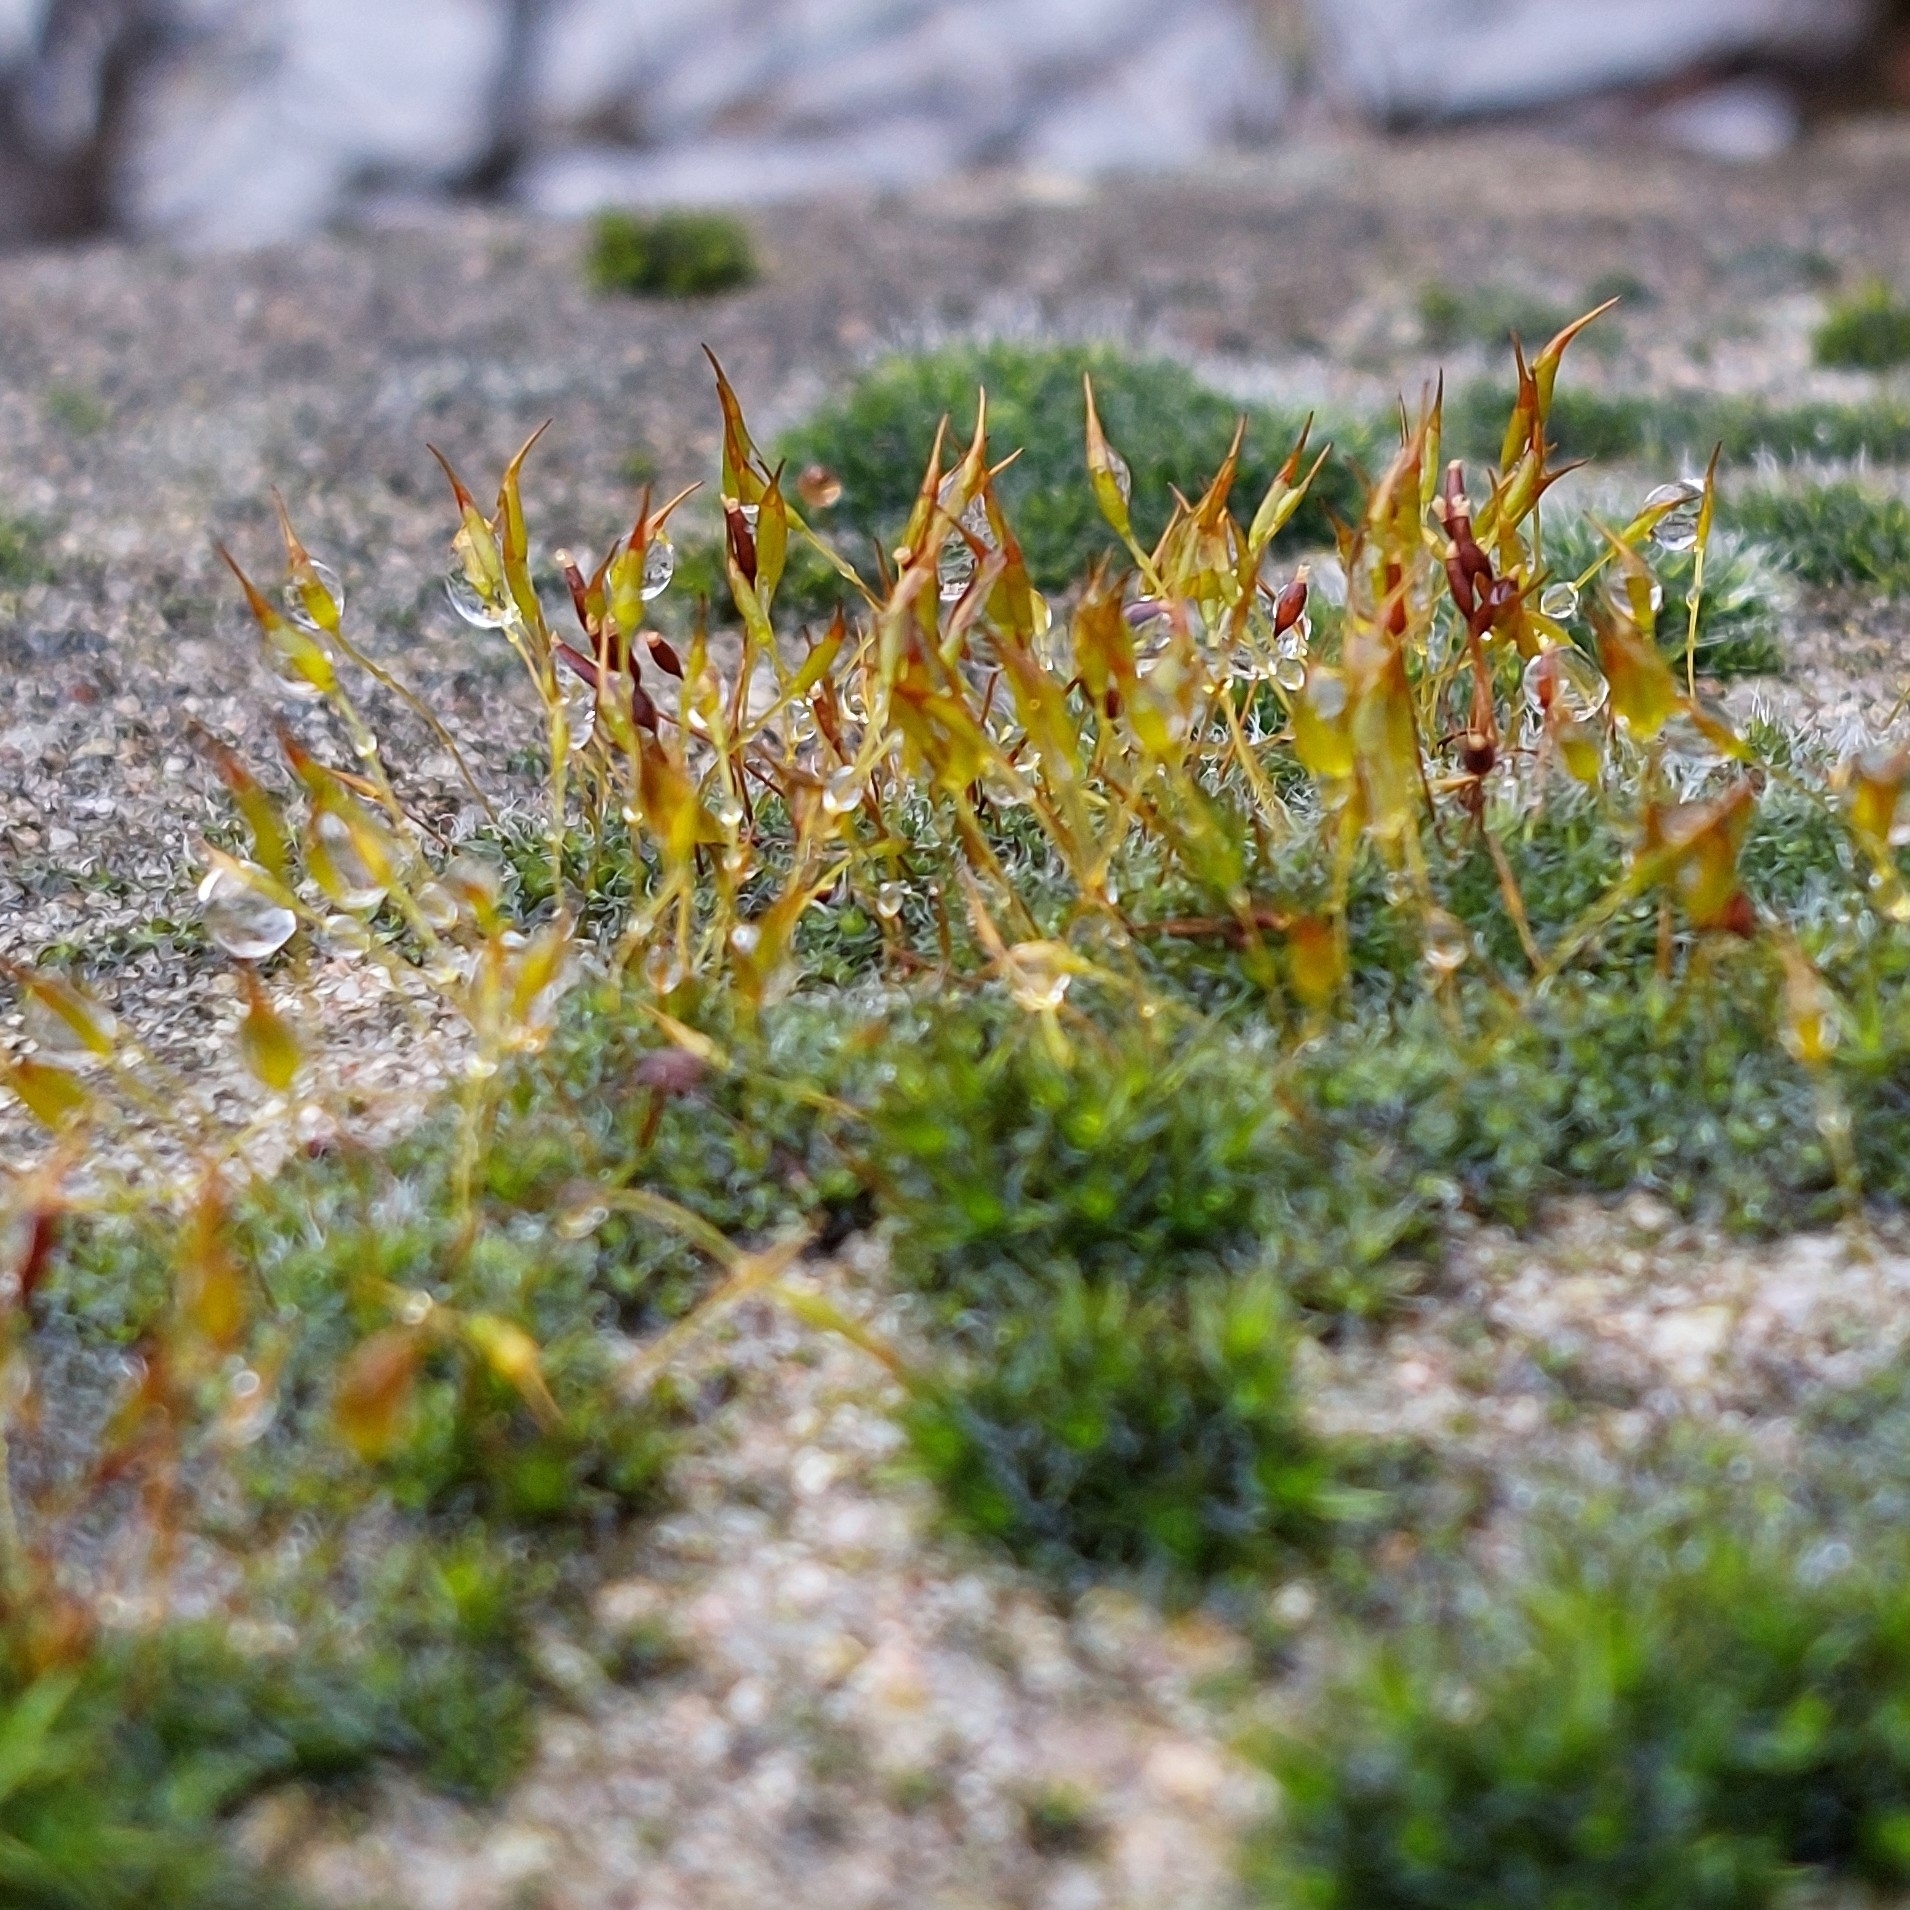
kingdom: Plantae
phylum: Bryophyta
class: Bryopsida
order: Pottiales
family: Pottiaceae
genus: Tortula
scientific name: Tortula muralis
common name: Wall screw-moss
